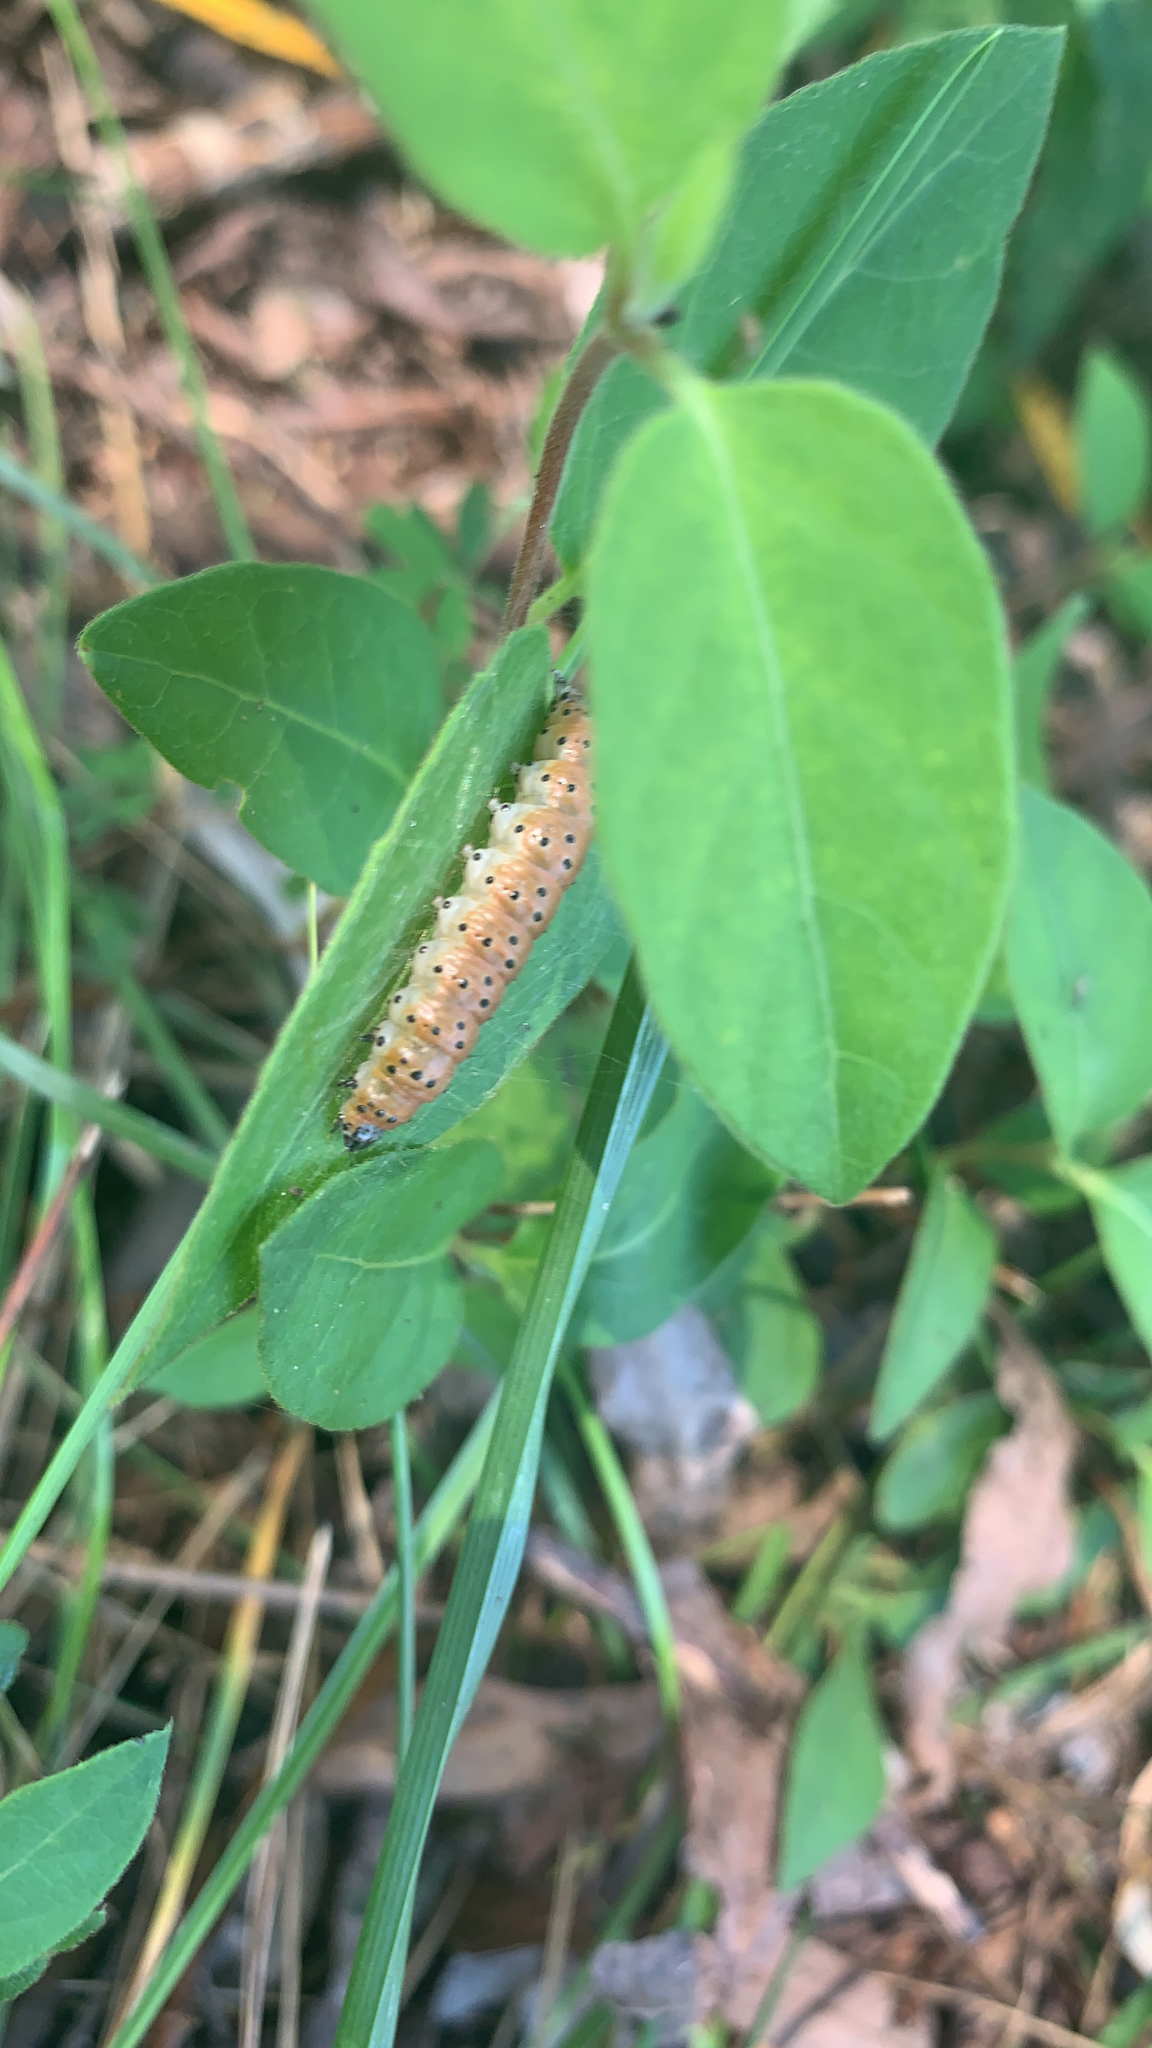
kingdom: Animalia
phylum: Arthropoda
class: Insecta
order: Lepidoptera
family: Crambidae
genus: Saucrobotys
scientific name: Saucrobotys futilalis
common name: Dogbane saucrobotys moth
